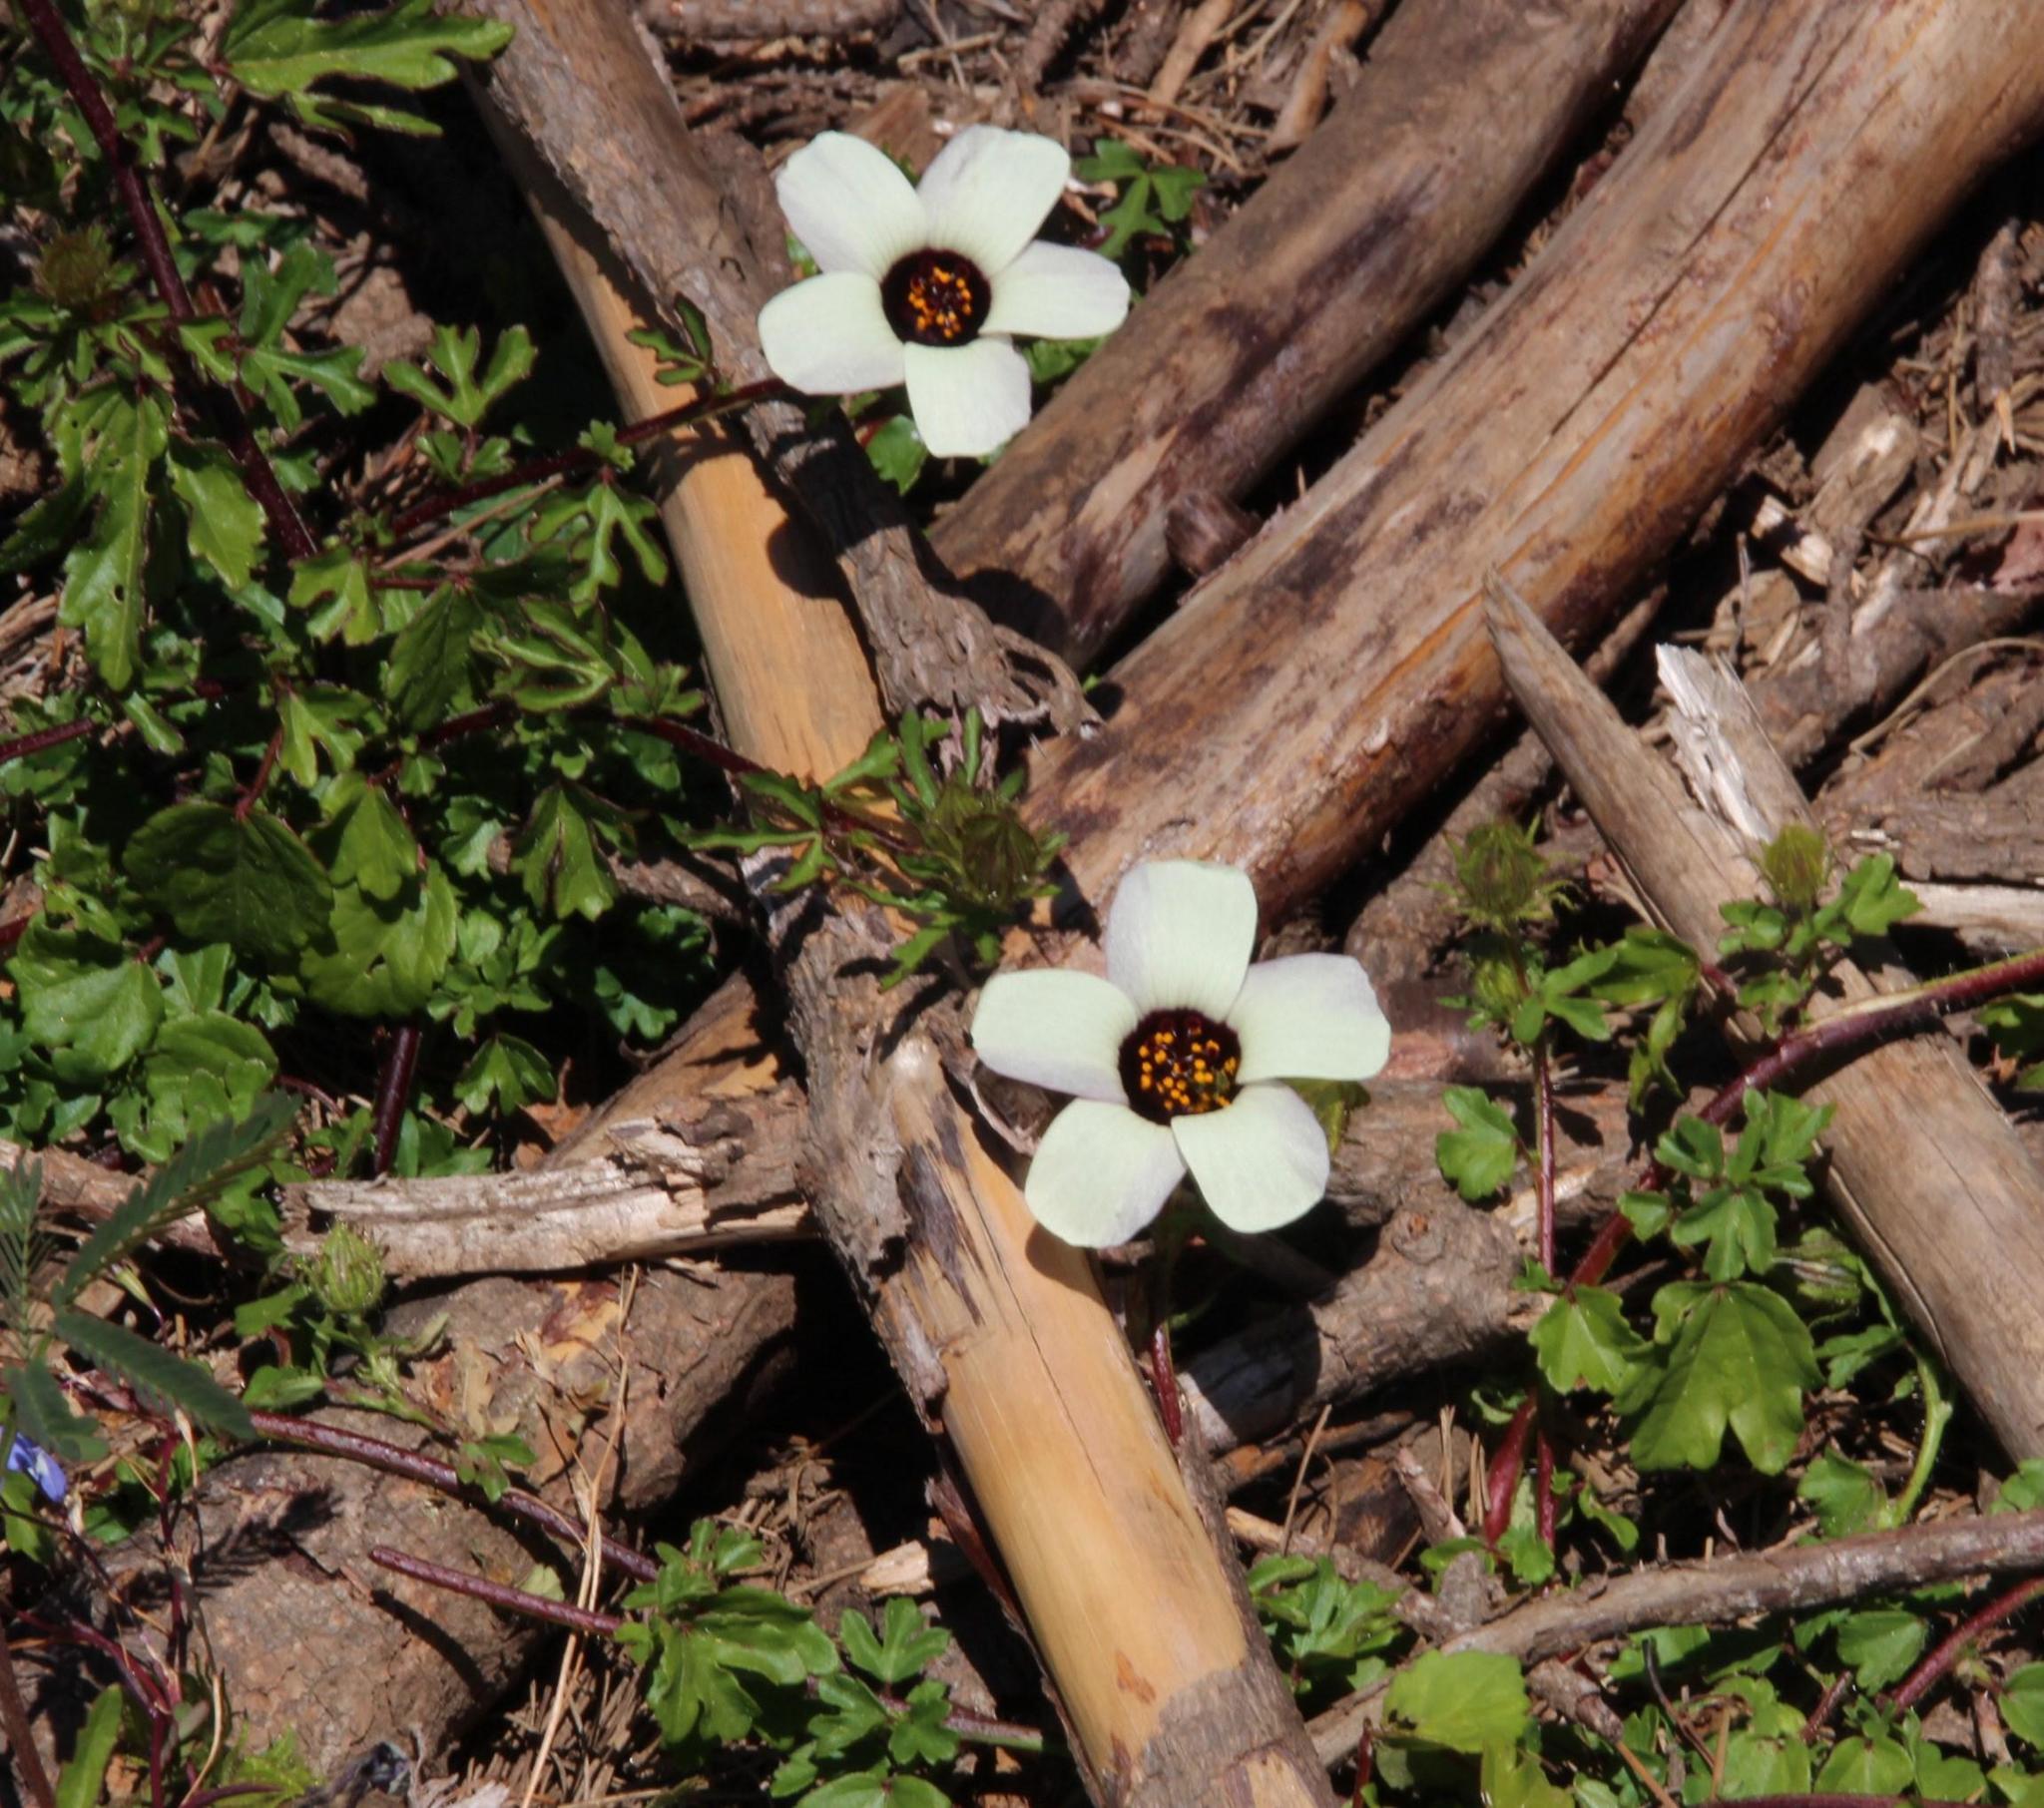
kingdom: Plantae
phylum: Tracheophyta
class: Magnoliopsida
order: Malvales
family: Malvaceae
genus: Hibiscus
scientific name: Hibiscus trionum
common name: Bladder ketmia
